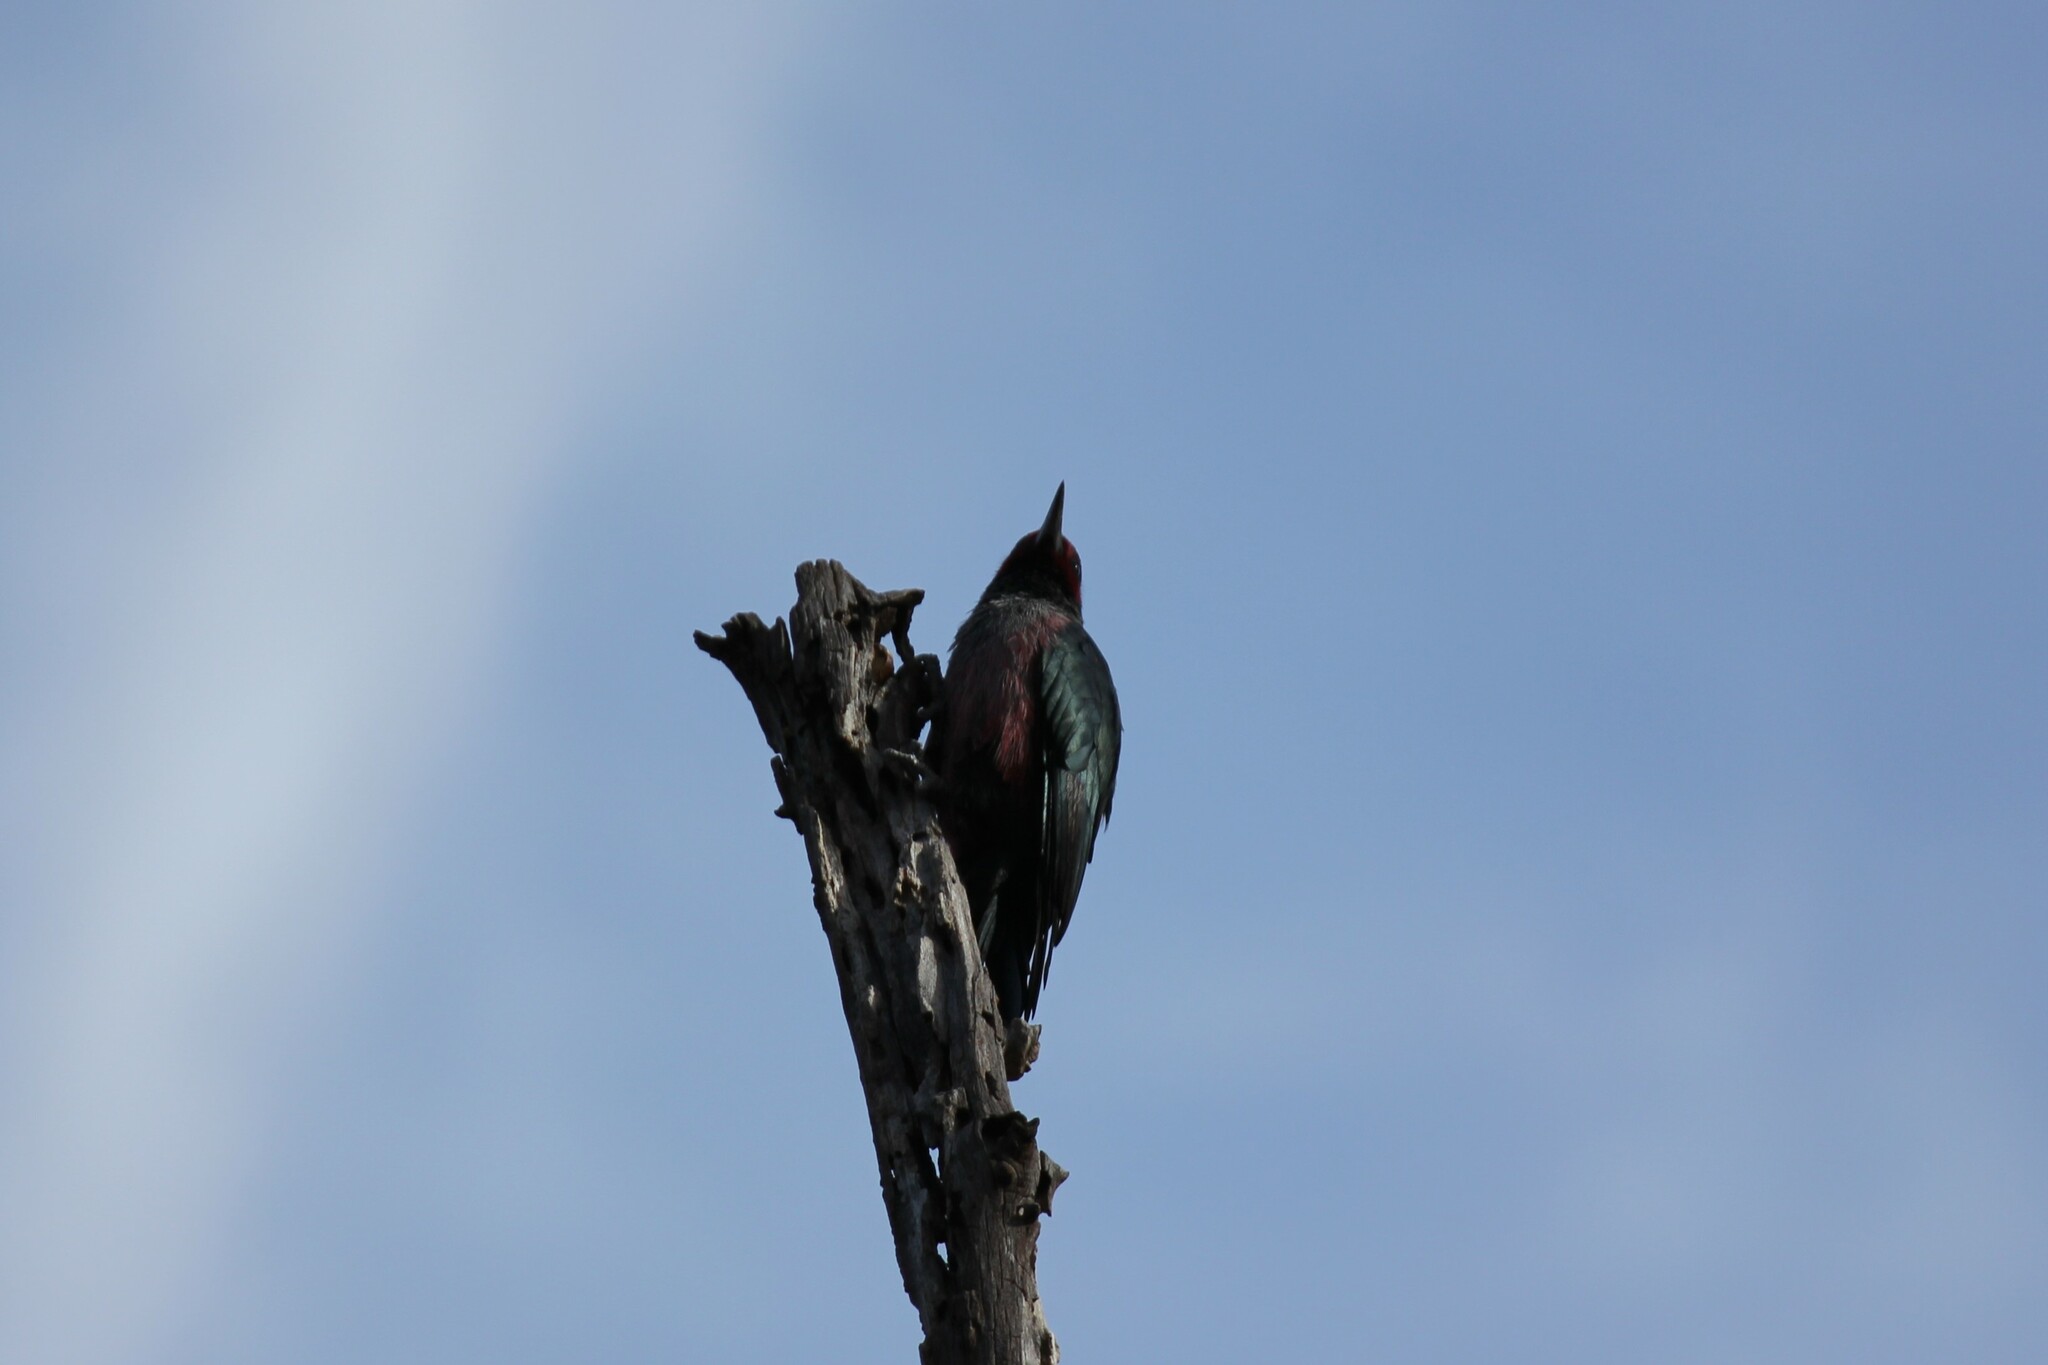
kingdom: Animalia
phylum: Chordata
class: Aves
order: Piciformes
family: Picidae
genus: Melanerpes
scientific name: Melanerpes lewis
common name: Lewis's woodpecker
